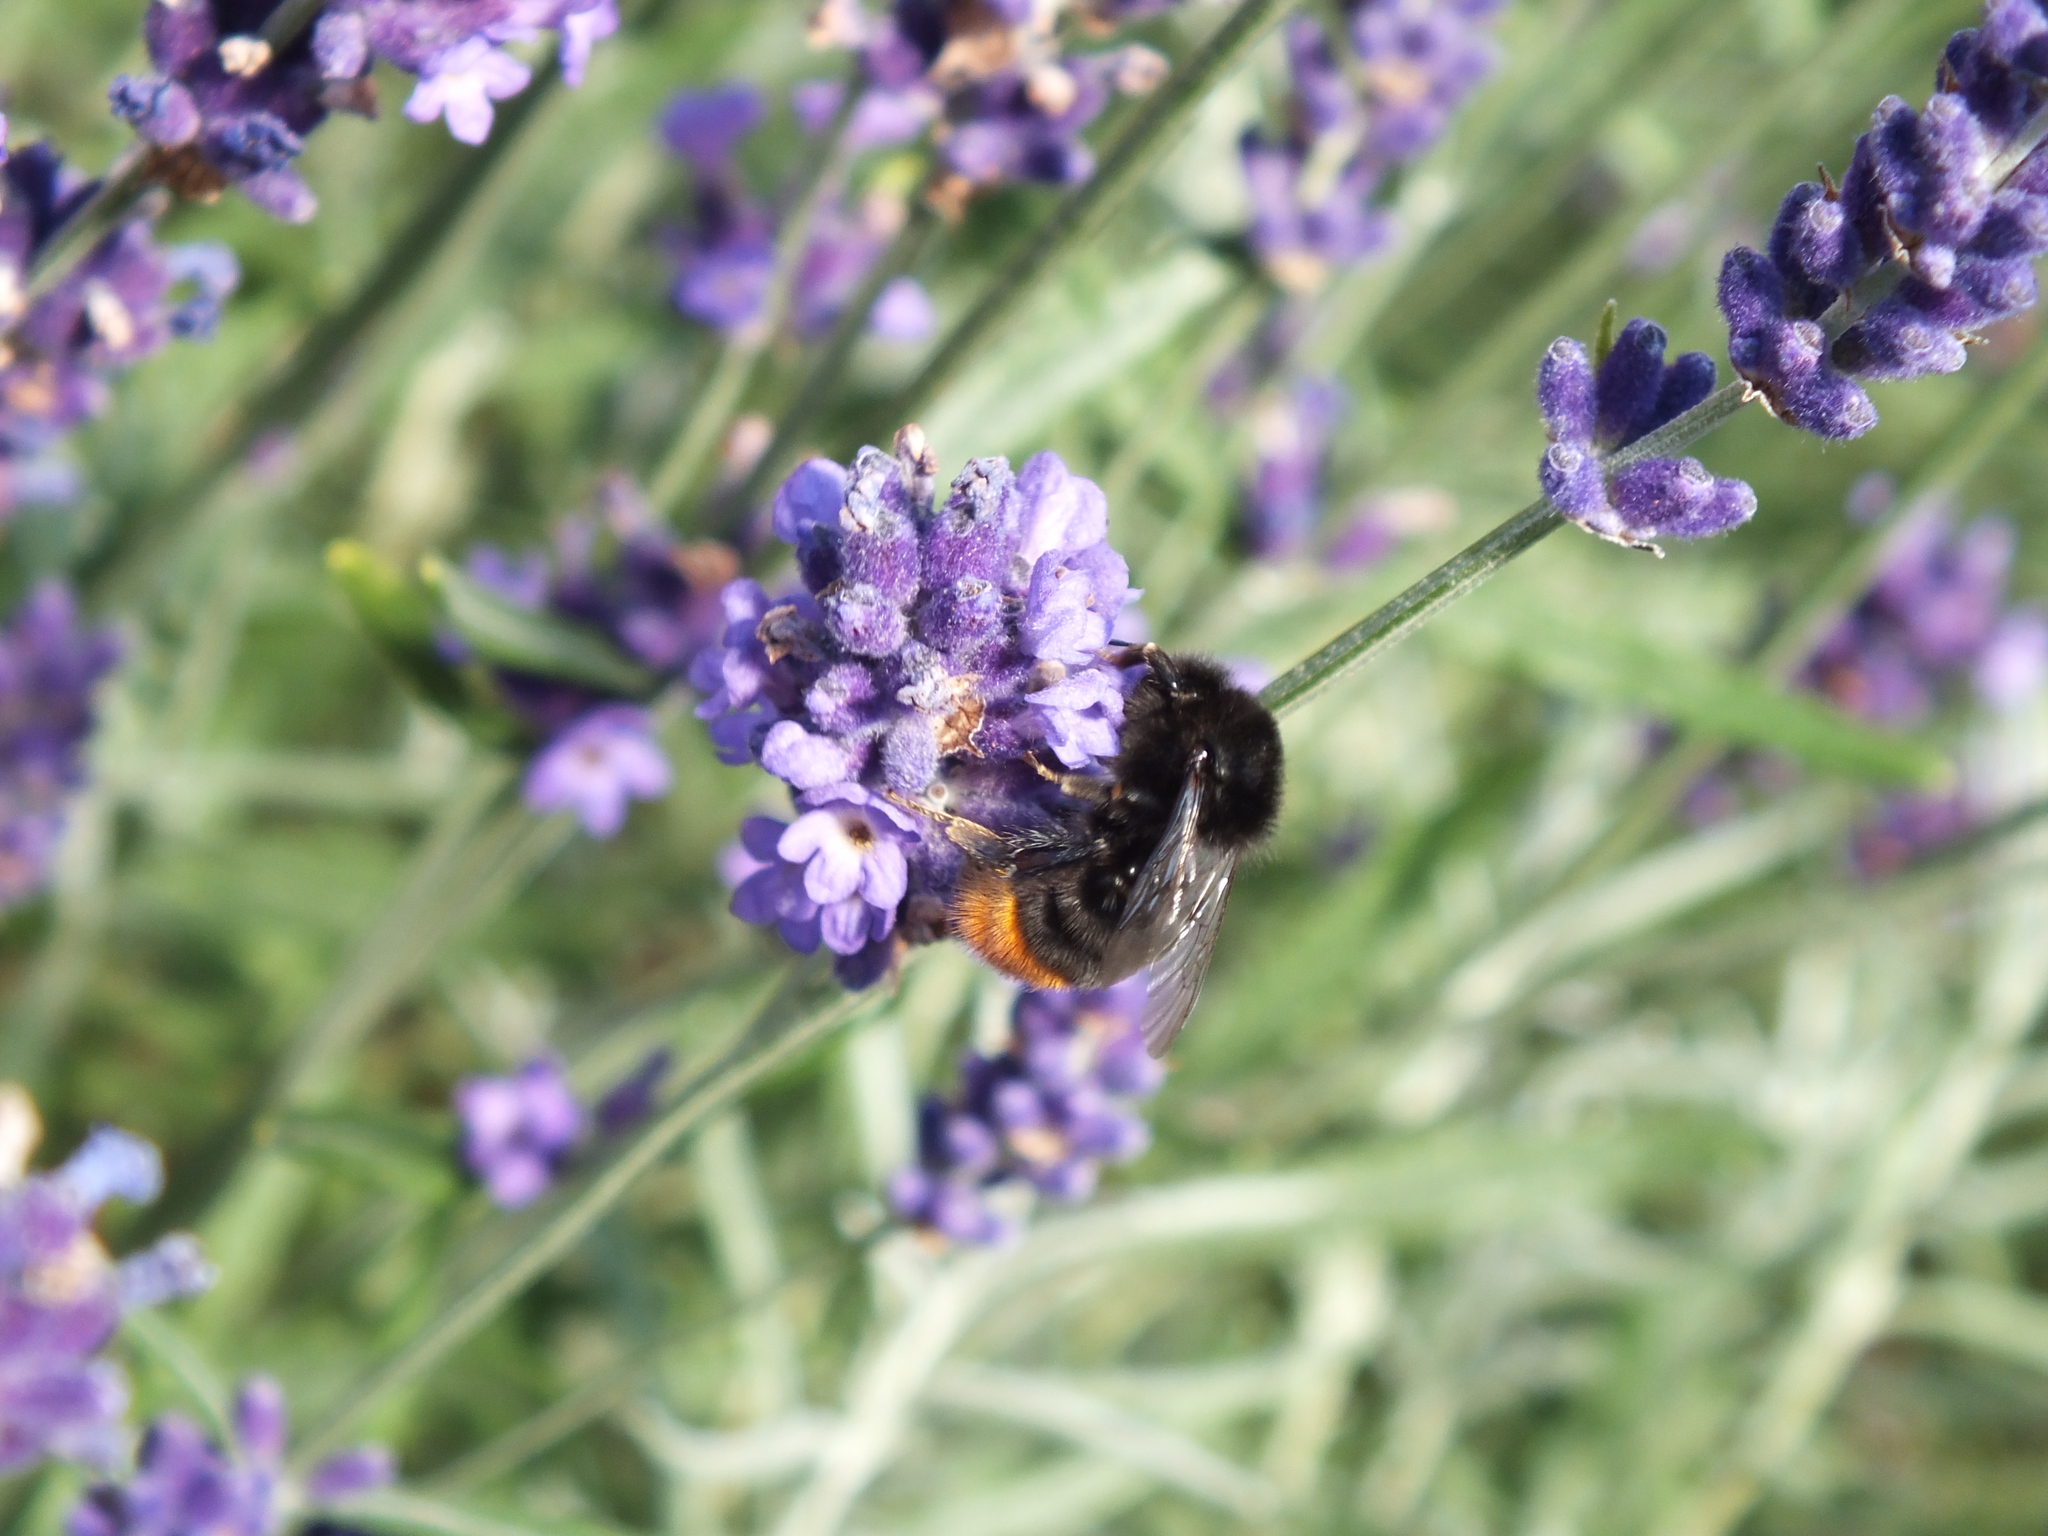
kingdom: Animalia
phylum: Arthropoda
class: Insecta
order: Hymenoptera
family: Apidae
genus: Bombus
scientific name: Bombus lapidarius
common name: Large red-tailed humble-bee
